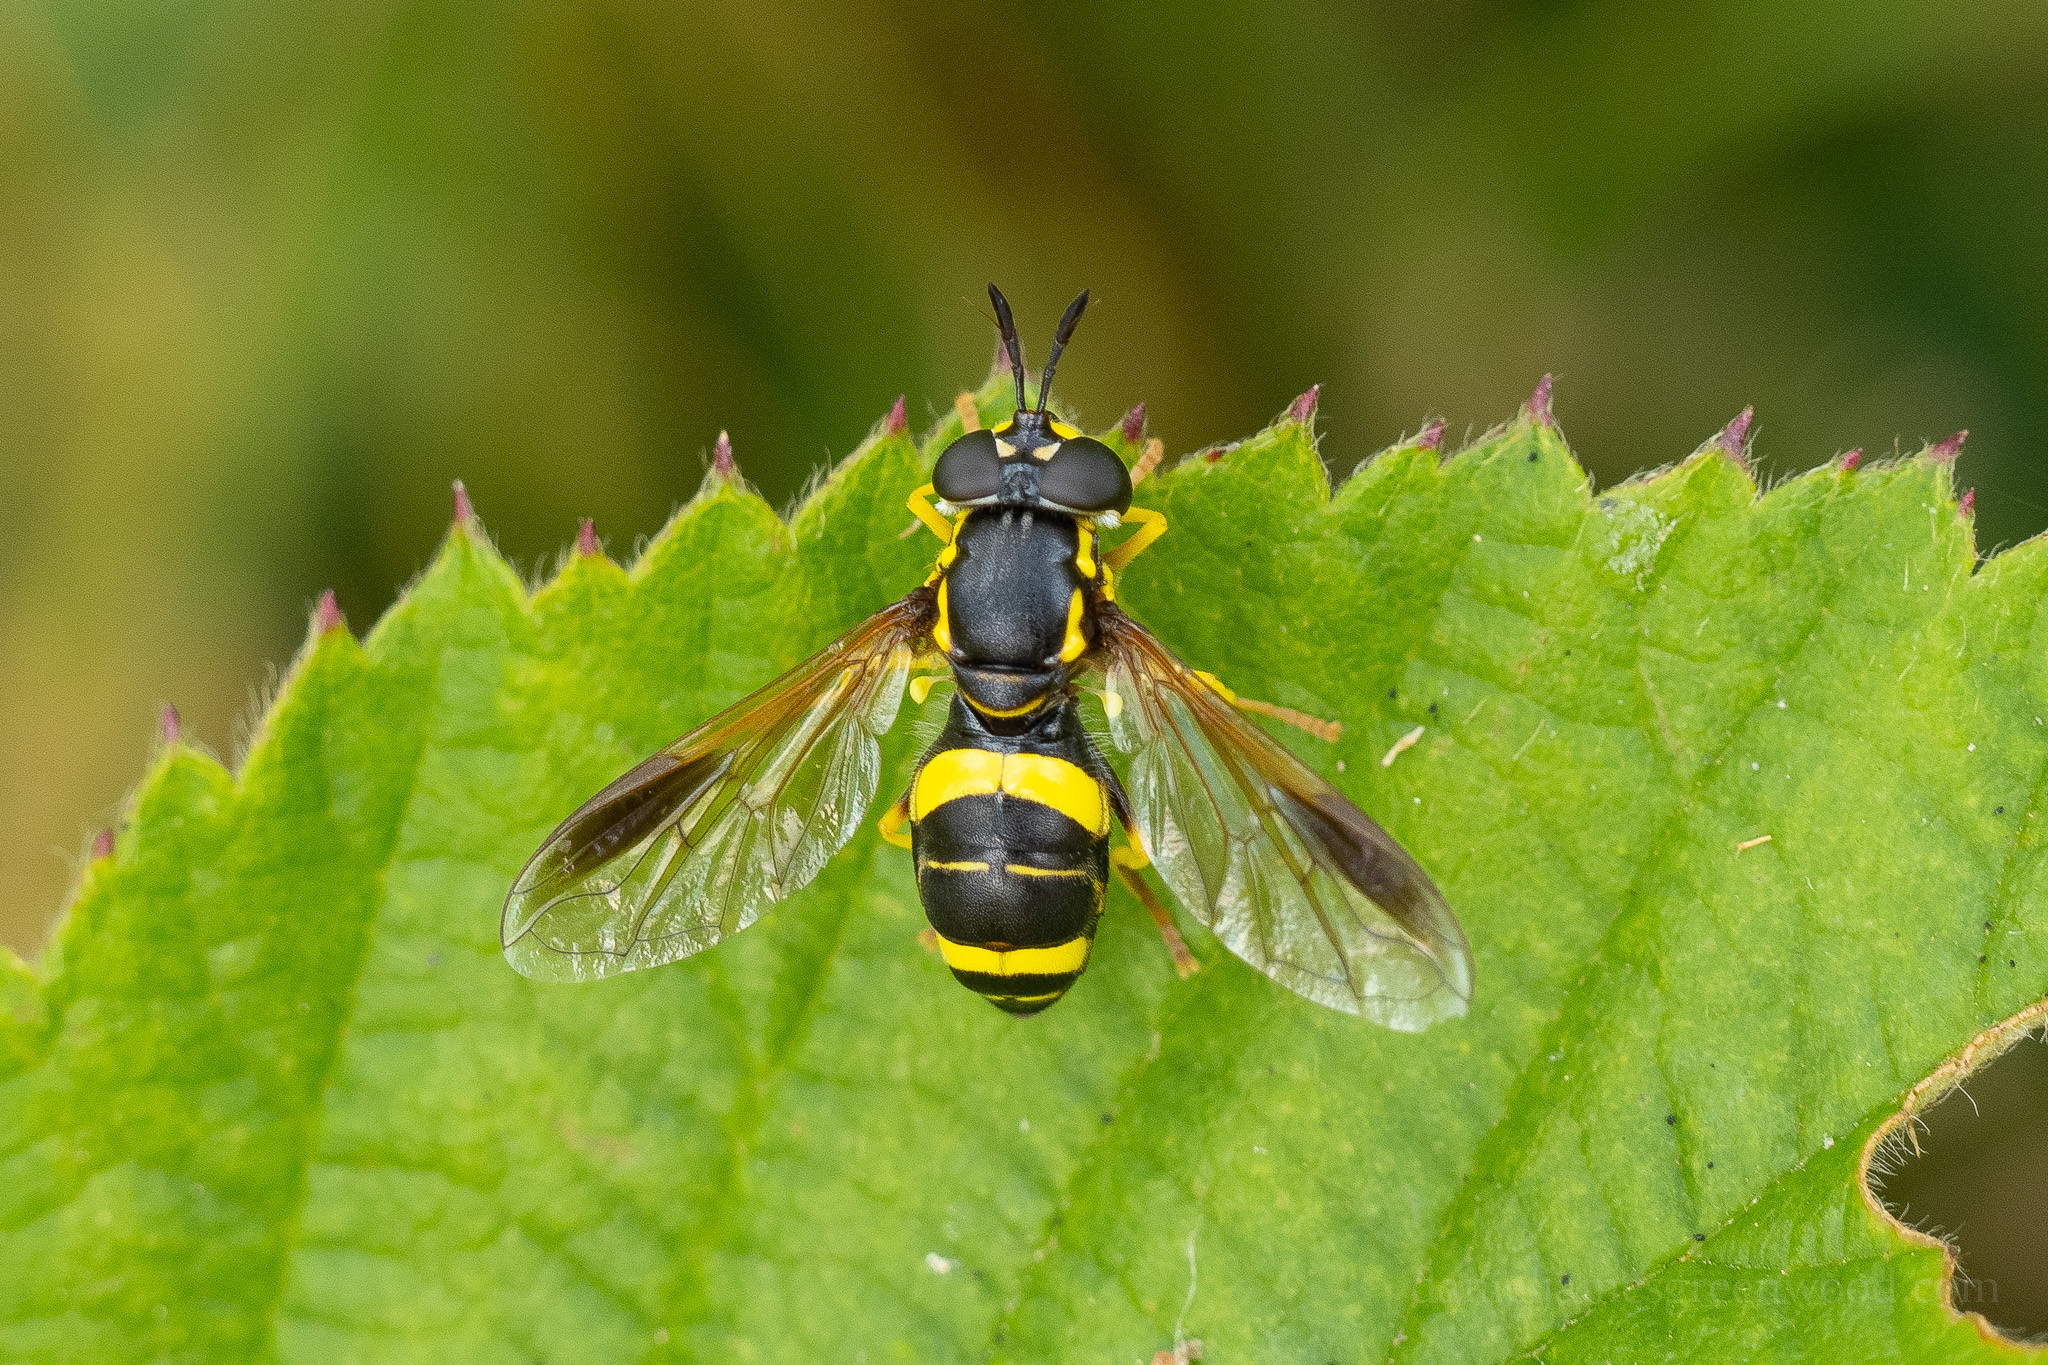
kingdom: Animalia
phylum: Arthropoda
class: Insecta
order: Diptera
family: Syrphidae
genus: Chrysotoxum
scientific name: Chrysotoxum bicincta
